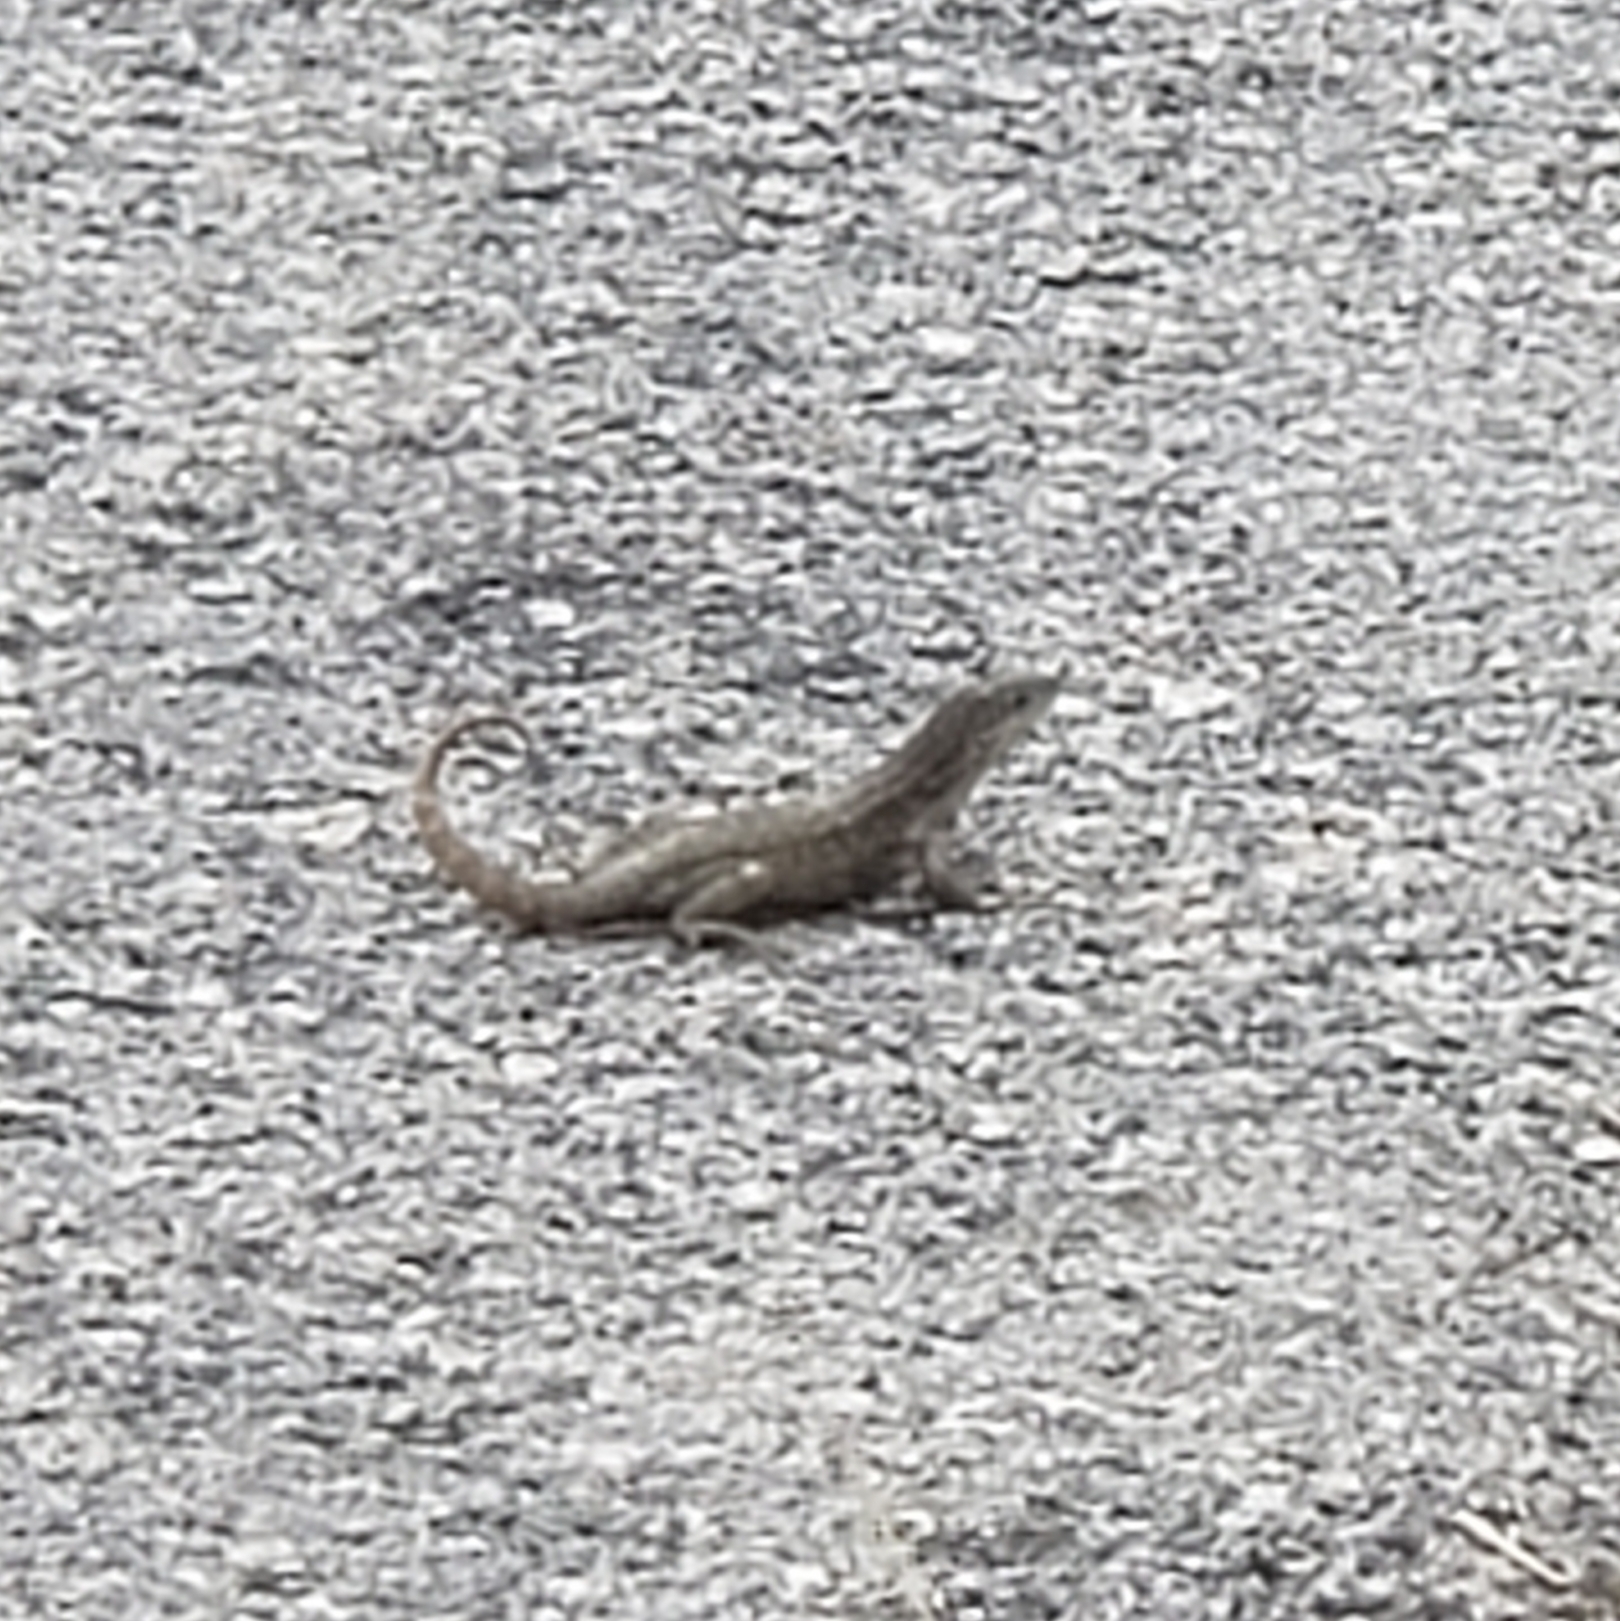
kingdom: Animalia
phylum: Chordata
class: Squamata
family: Leiocephalidae
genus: Leiocephalus
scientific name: Leiocephalus carinatus
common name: Northern curly-tailed lizard
